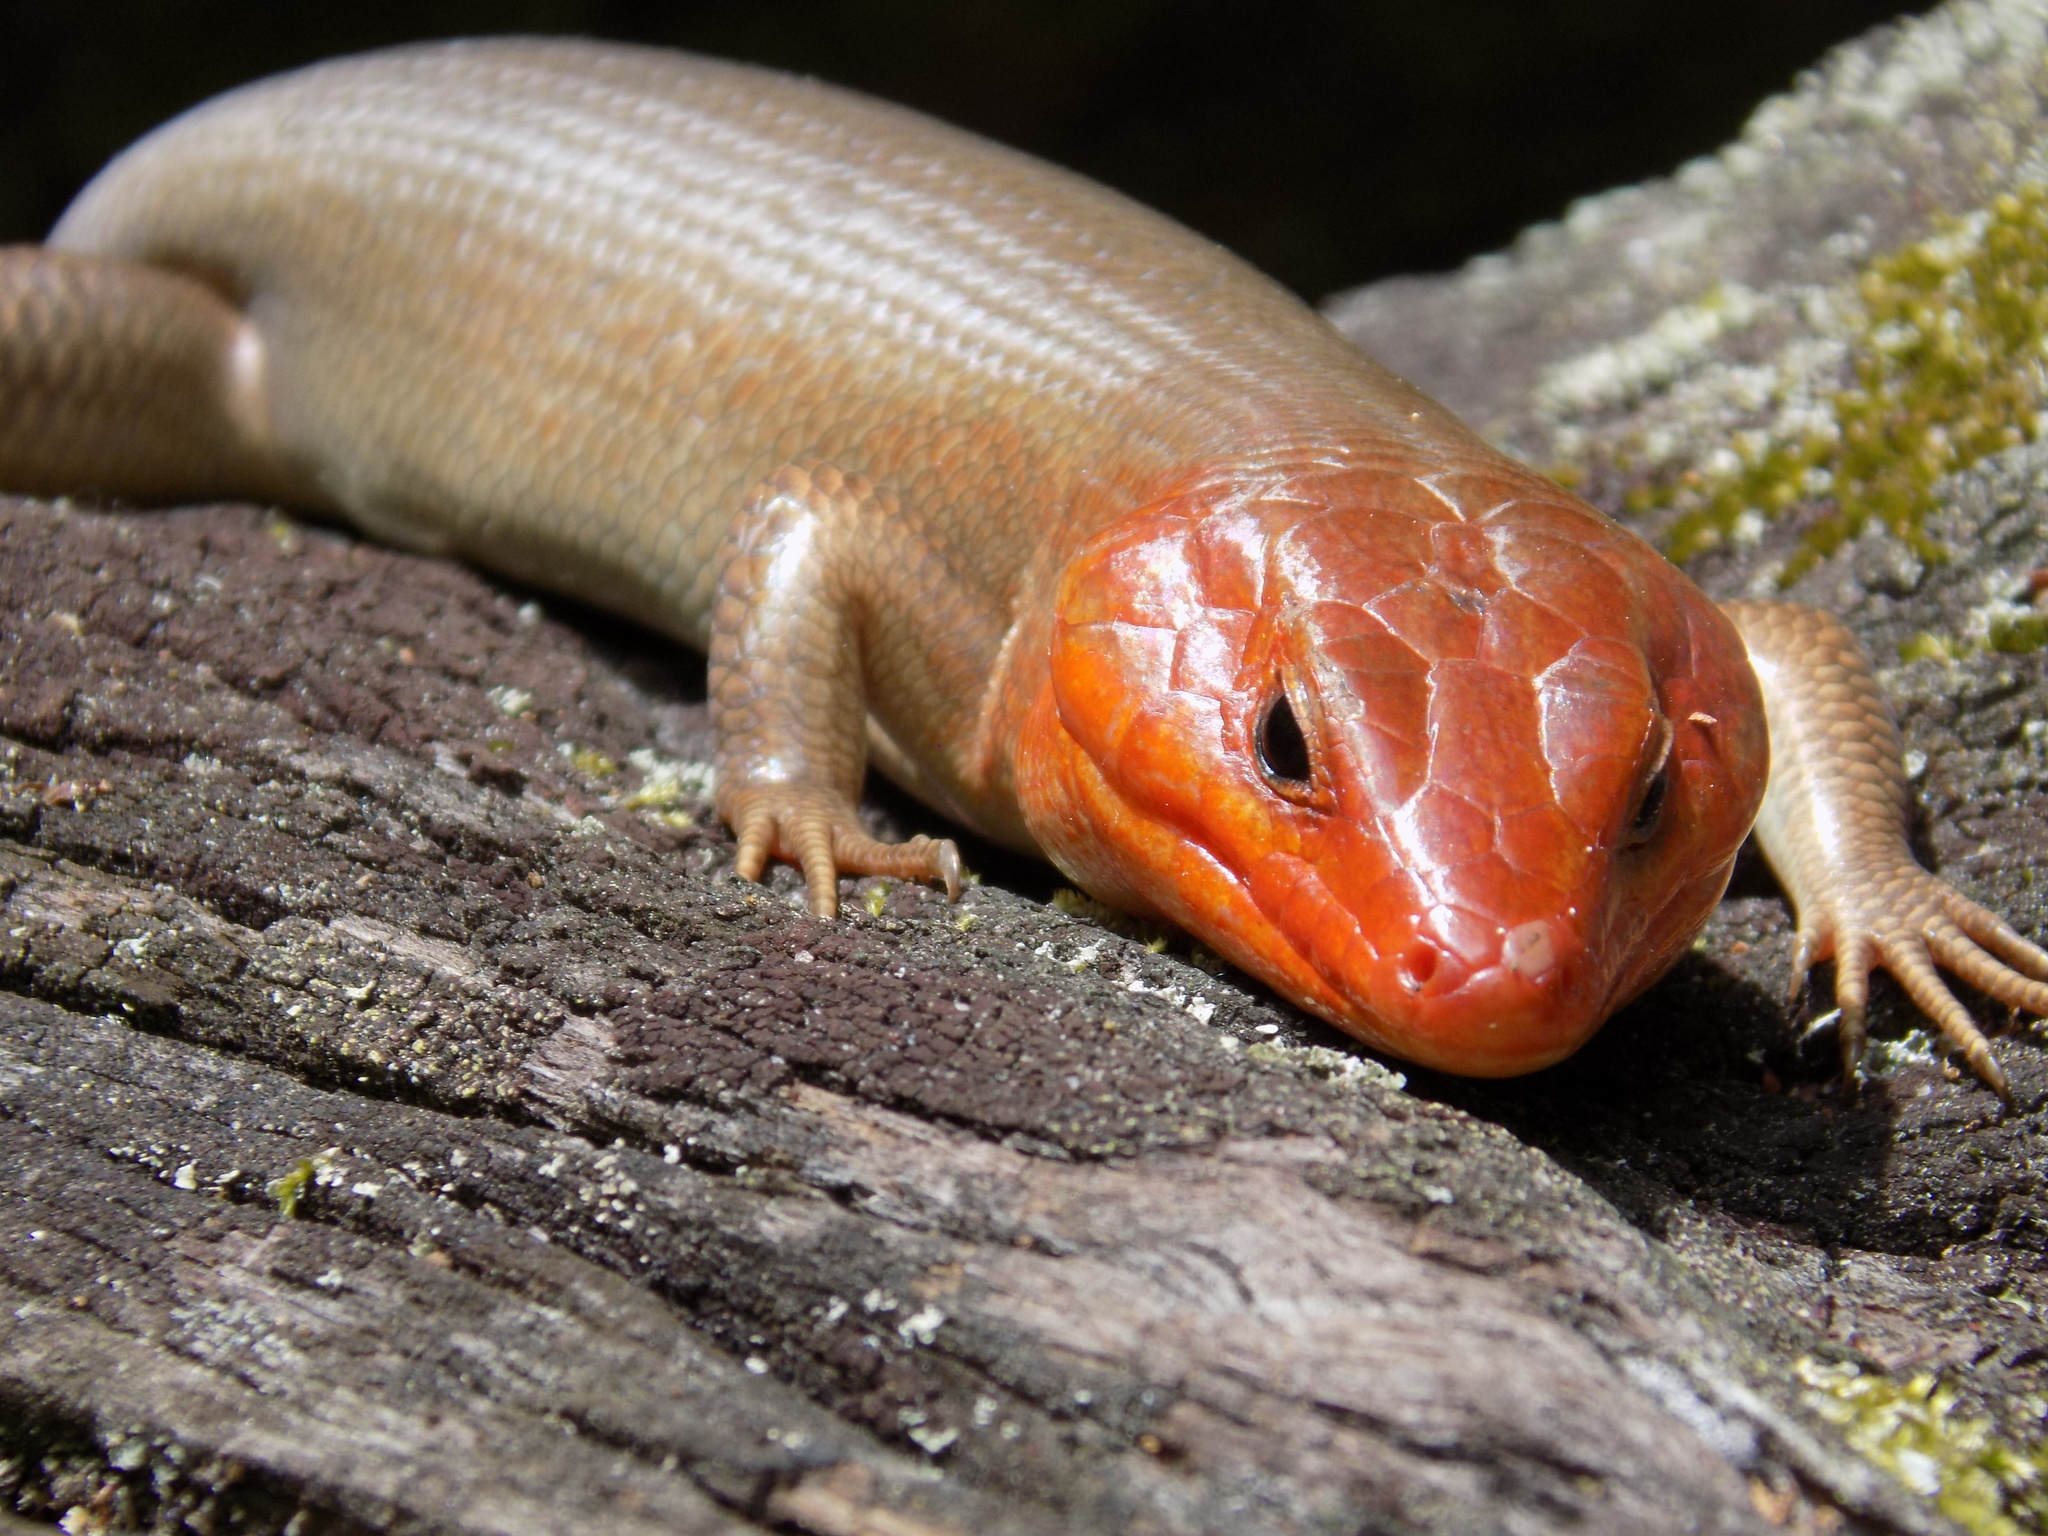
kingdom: Animalia
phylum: Chordata
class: Squamata
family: Scincidae
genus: Plestiodon
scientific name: Plestiodon laticeps
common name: Broadhead skink
